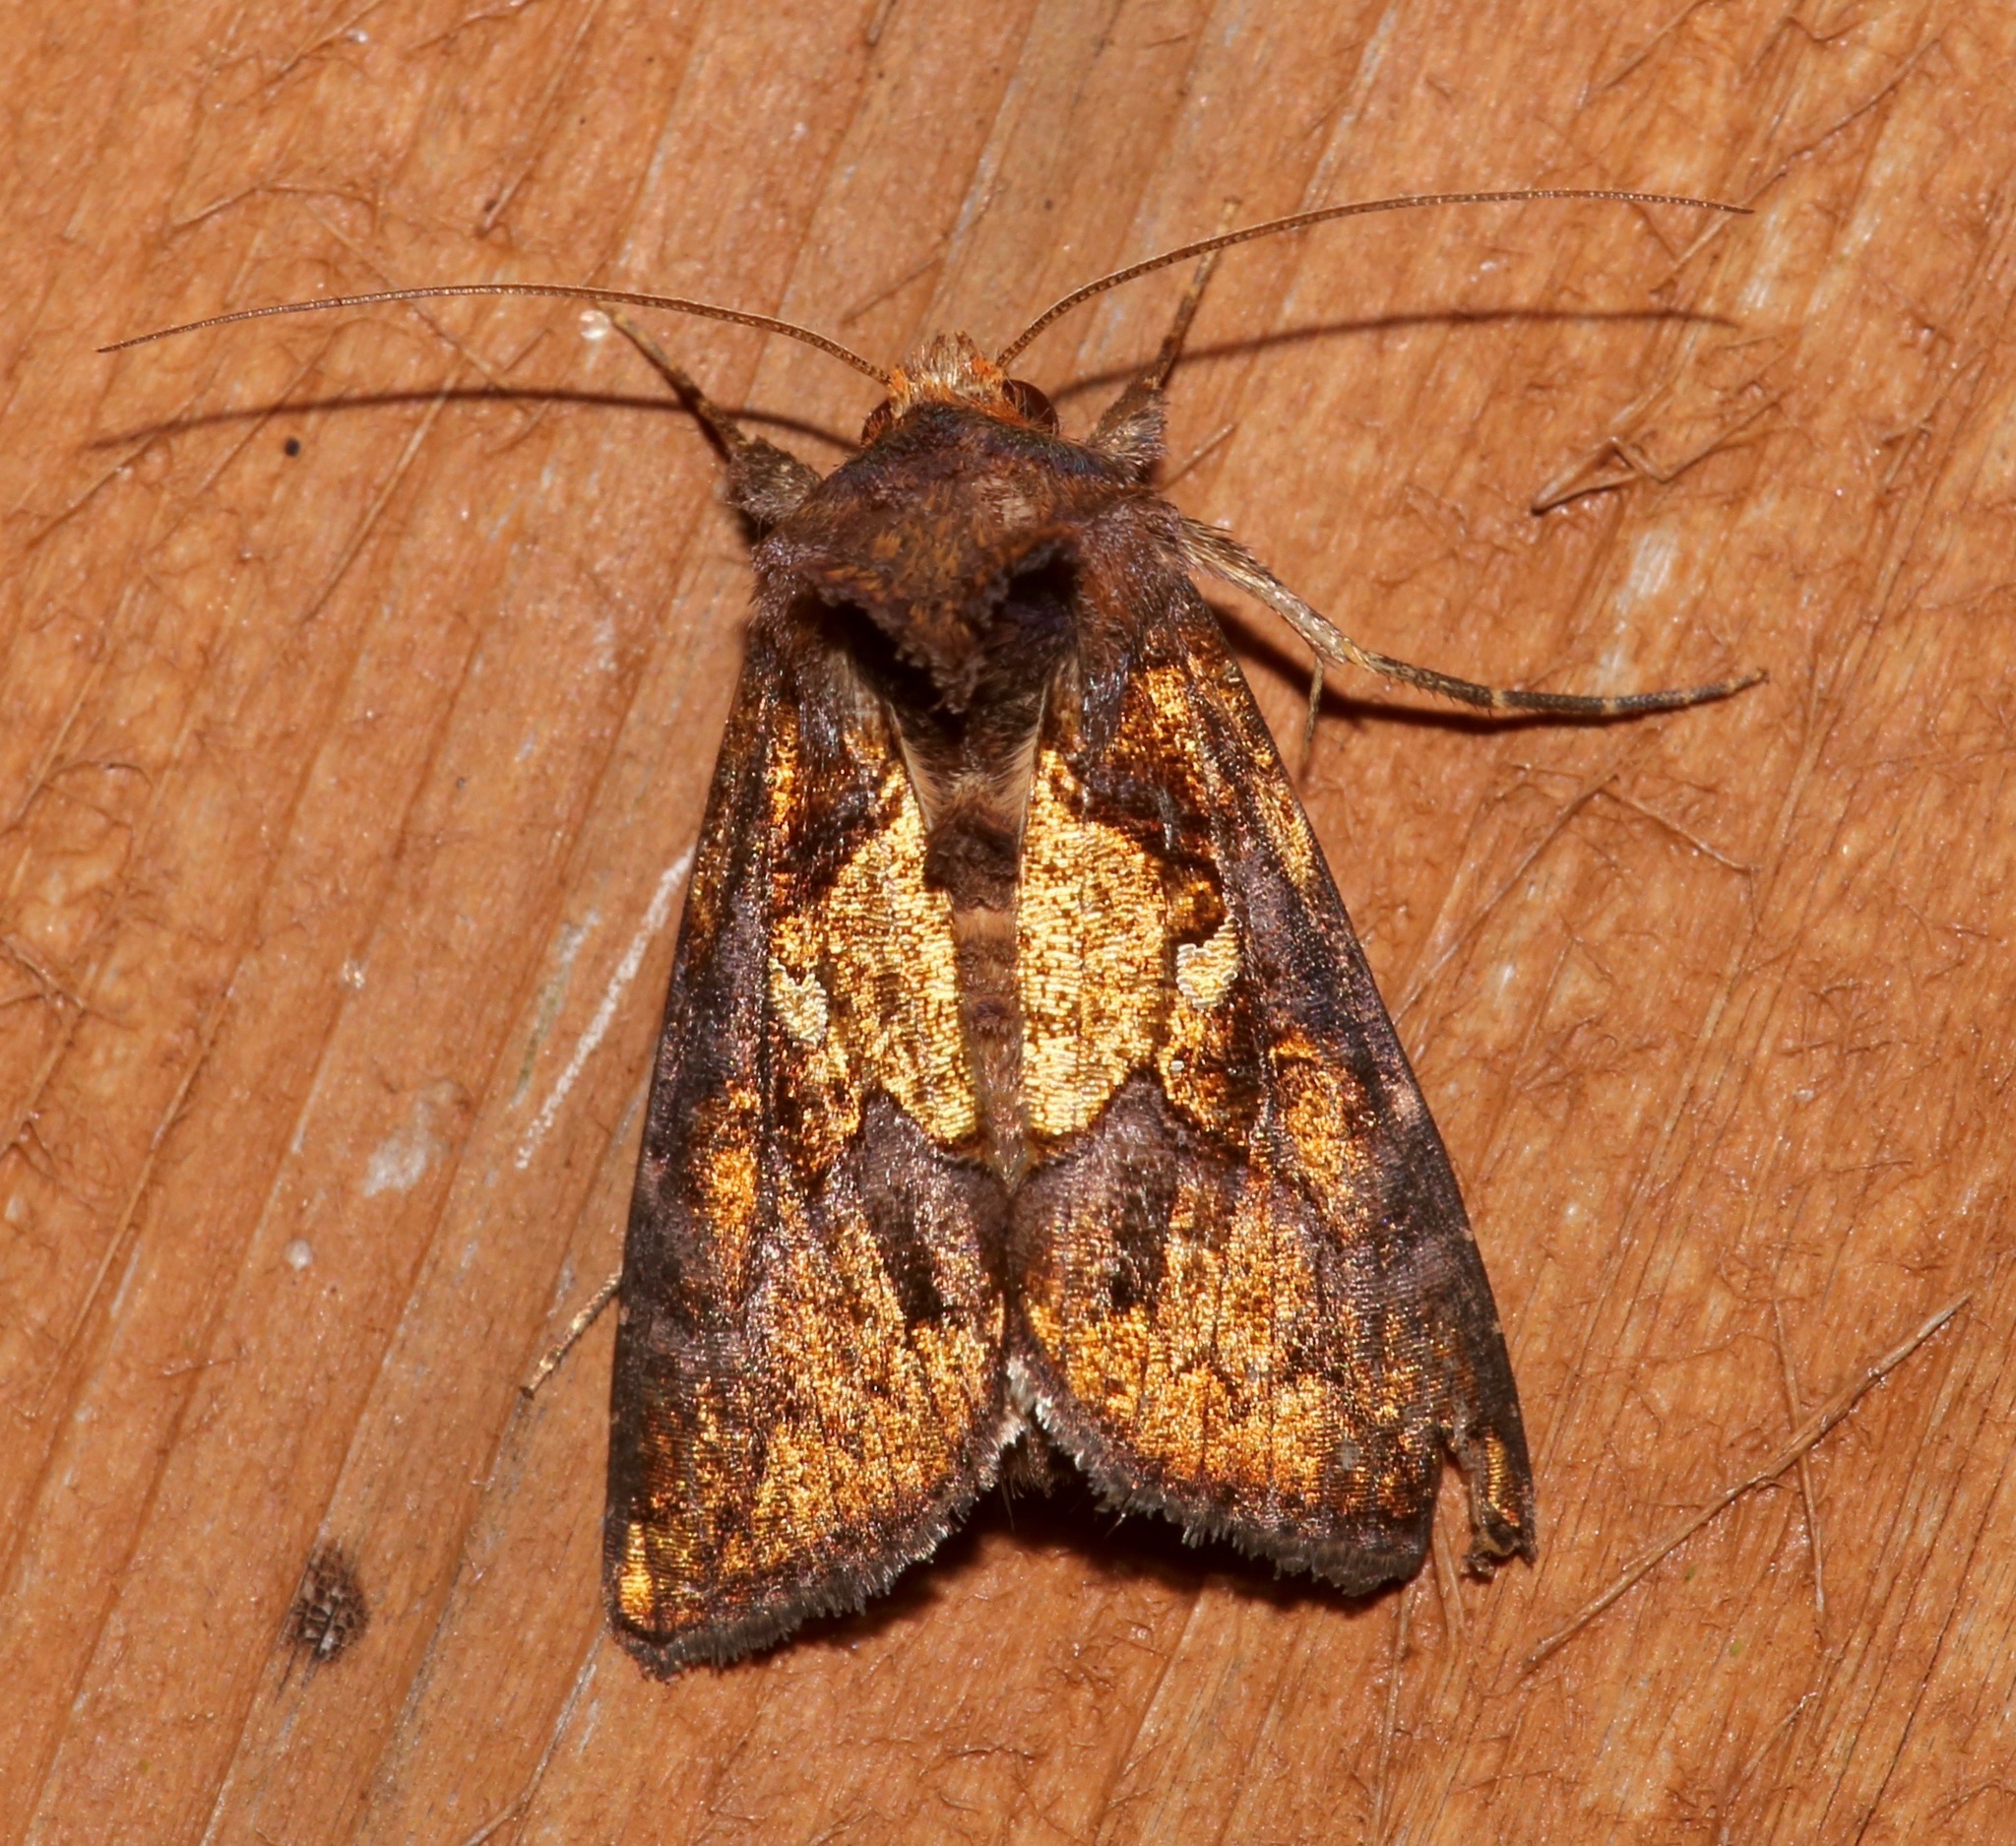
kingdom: Animalia
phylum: Arthropoda
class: Insecta
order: Lepidoptera
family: Noctuidae
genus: Argyrogramma
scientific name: Argyrogramma verruca
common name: Golden looper moth
